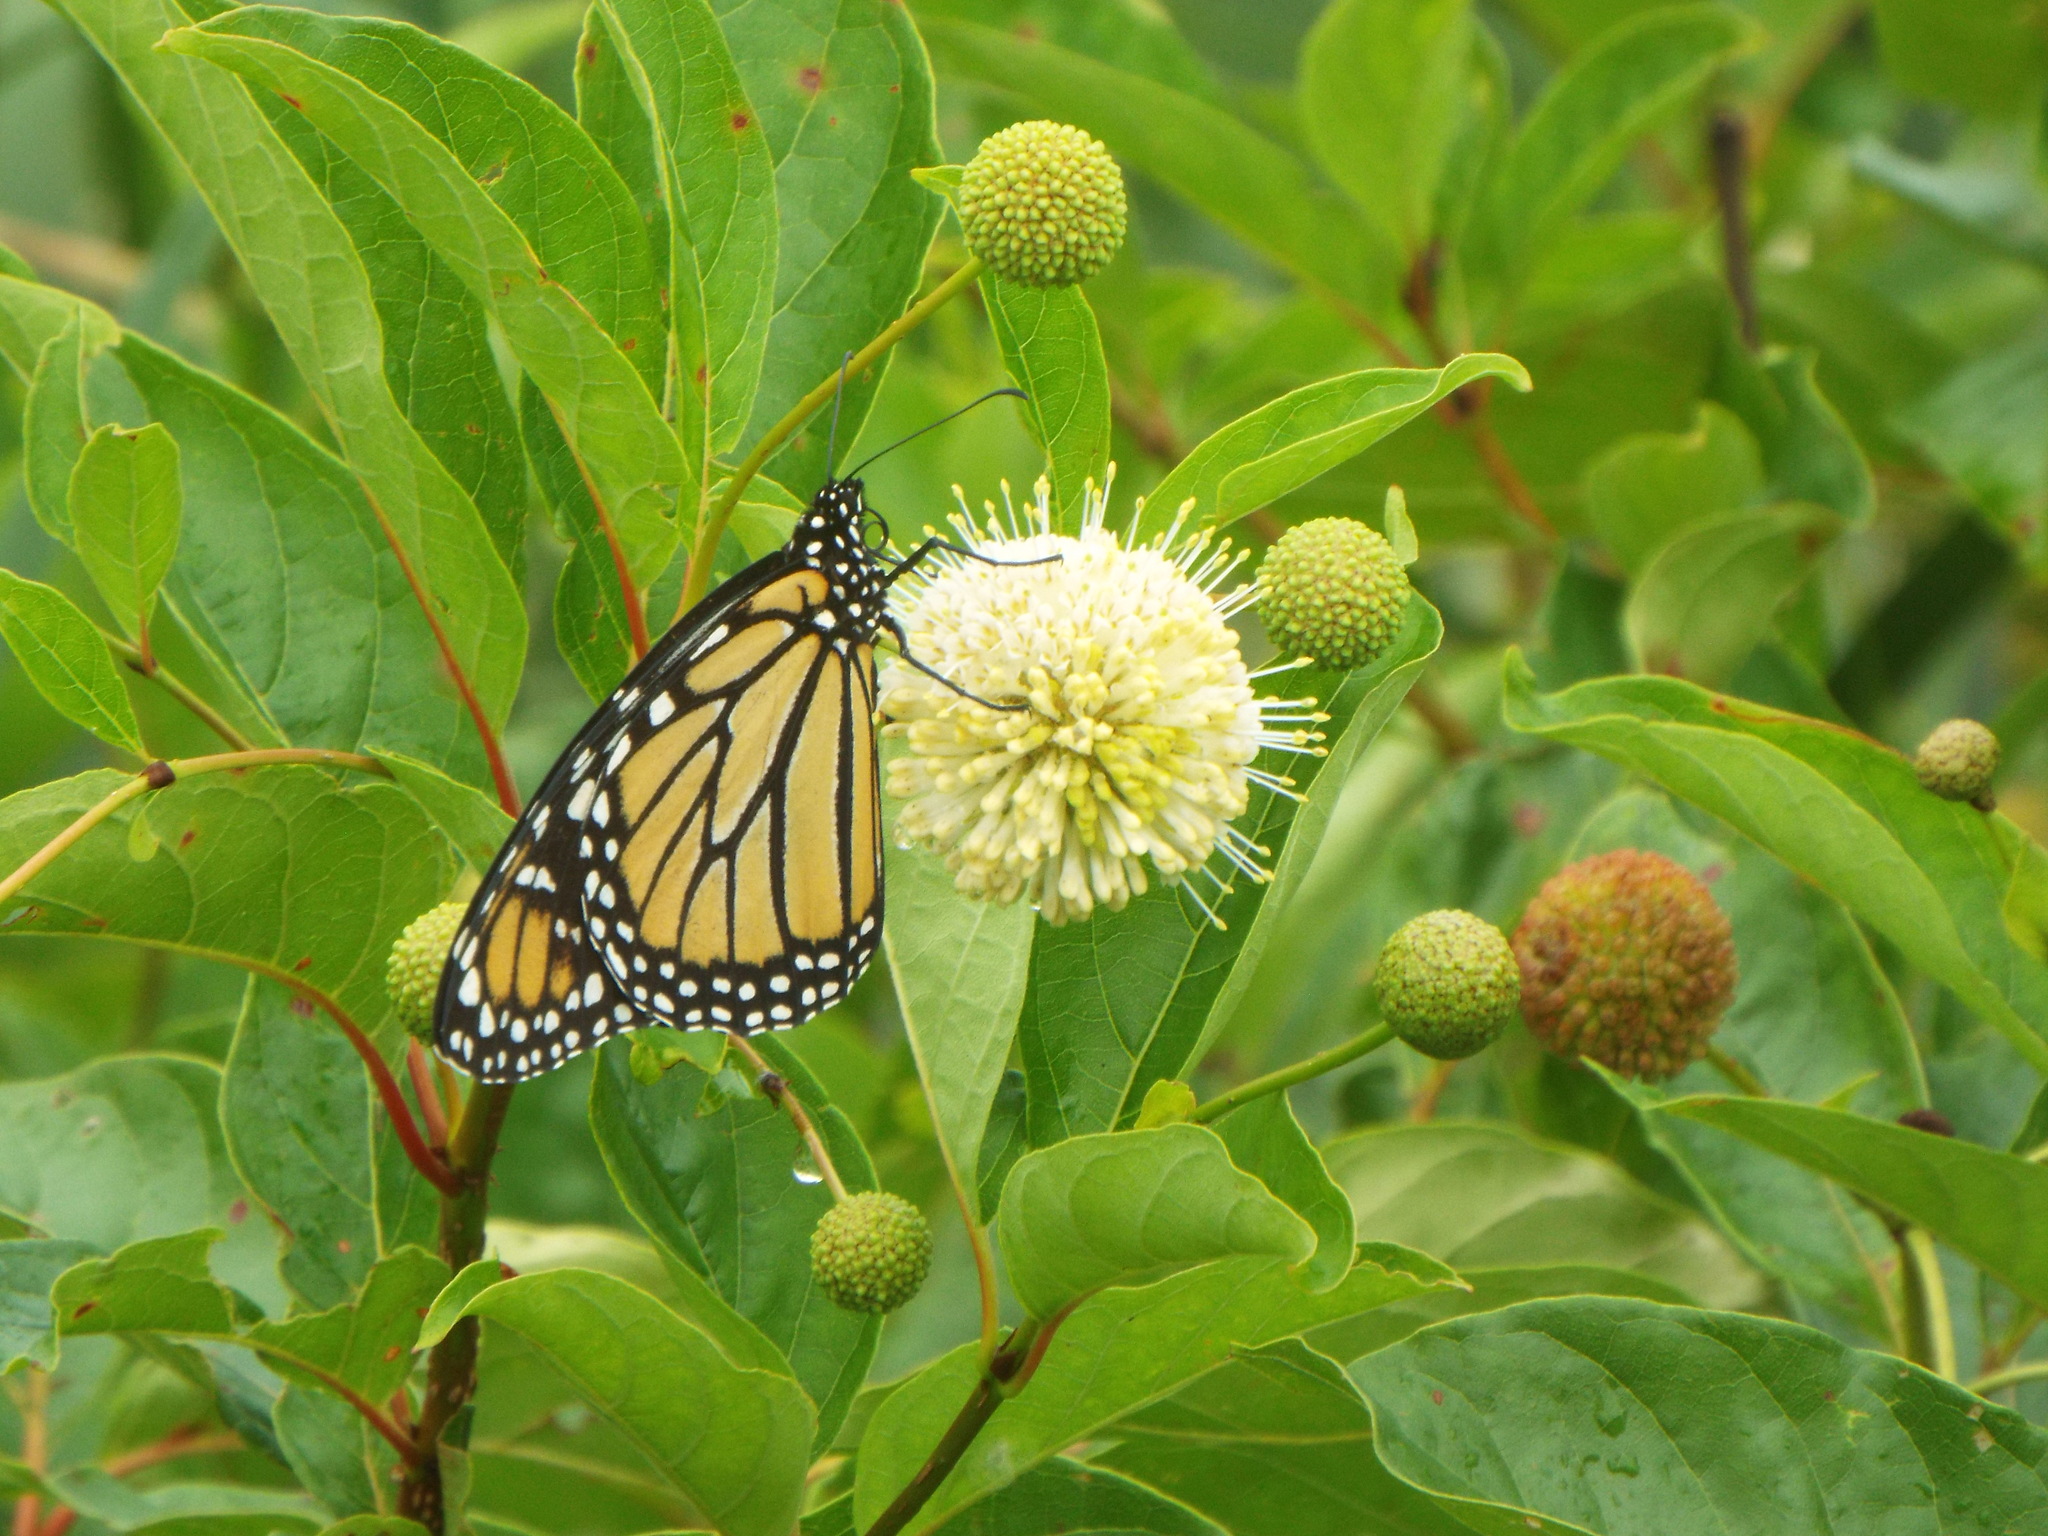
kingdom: Animalia
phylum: Arthropoda
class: Insecta
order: Lepidoptera
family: Nymphalidae
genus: Danaus
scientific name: Danaus plexippus
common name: Monarch
